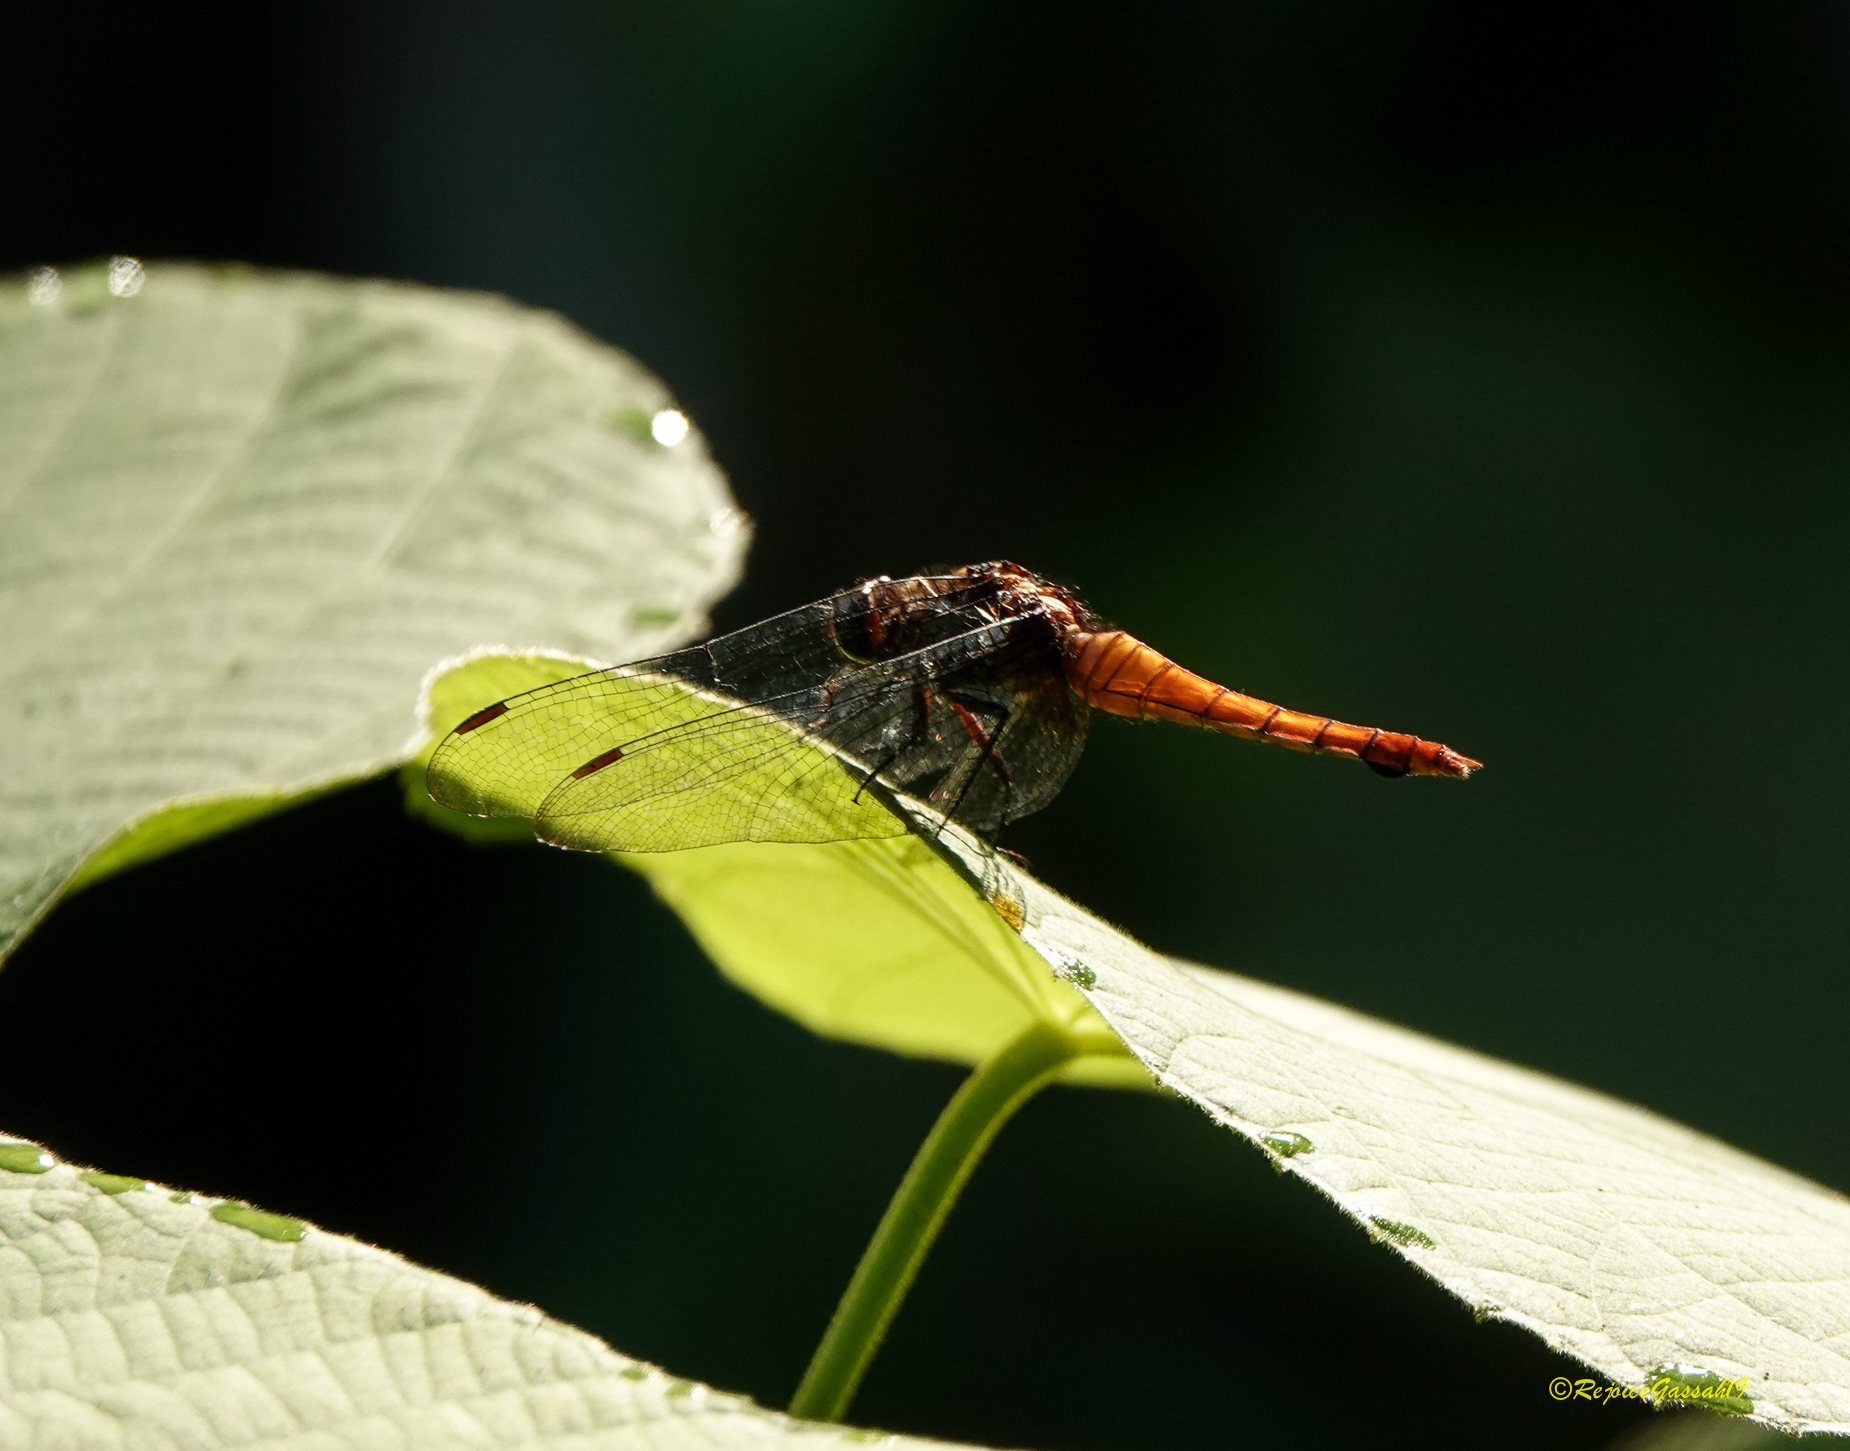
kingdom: Animalia
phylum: Arthropoda
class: Insecta
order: Odonata
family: Libellulidae
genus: Orthetrum
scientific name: Orthetrum pruinosum
